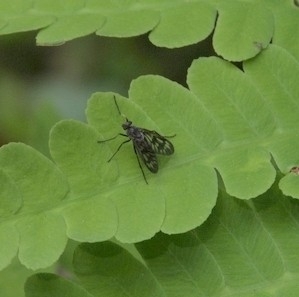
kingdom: Animalia
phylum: Arthropoda
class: Insecta
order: Diptera
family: Rhagionidae
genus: Rhagio
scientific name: Rhagio mystaceus
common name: Common snipe fly
